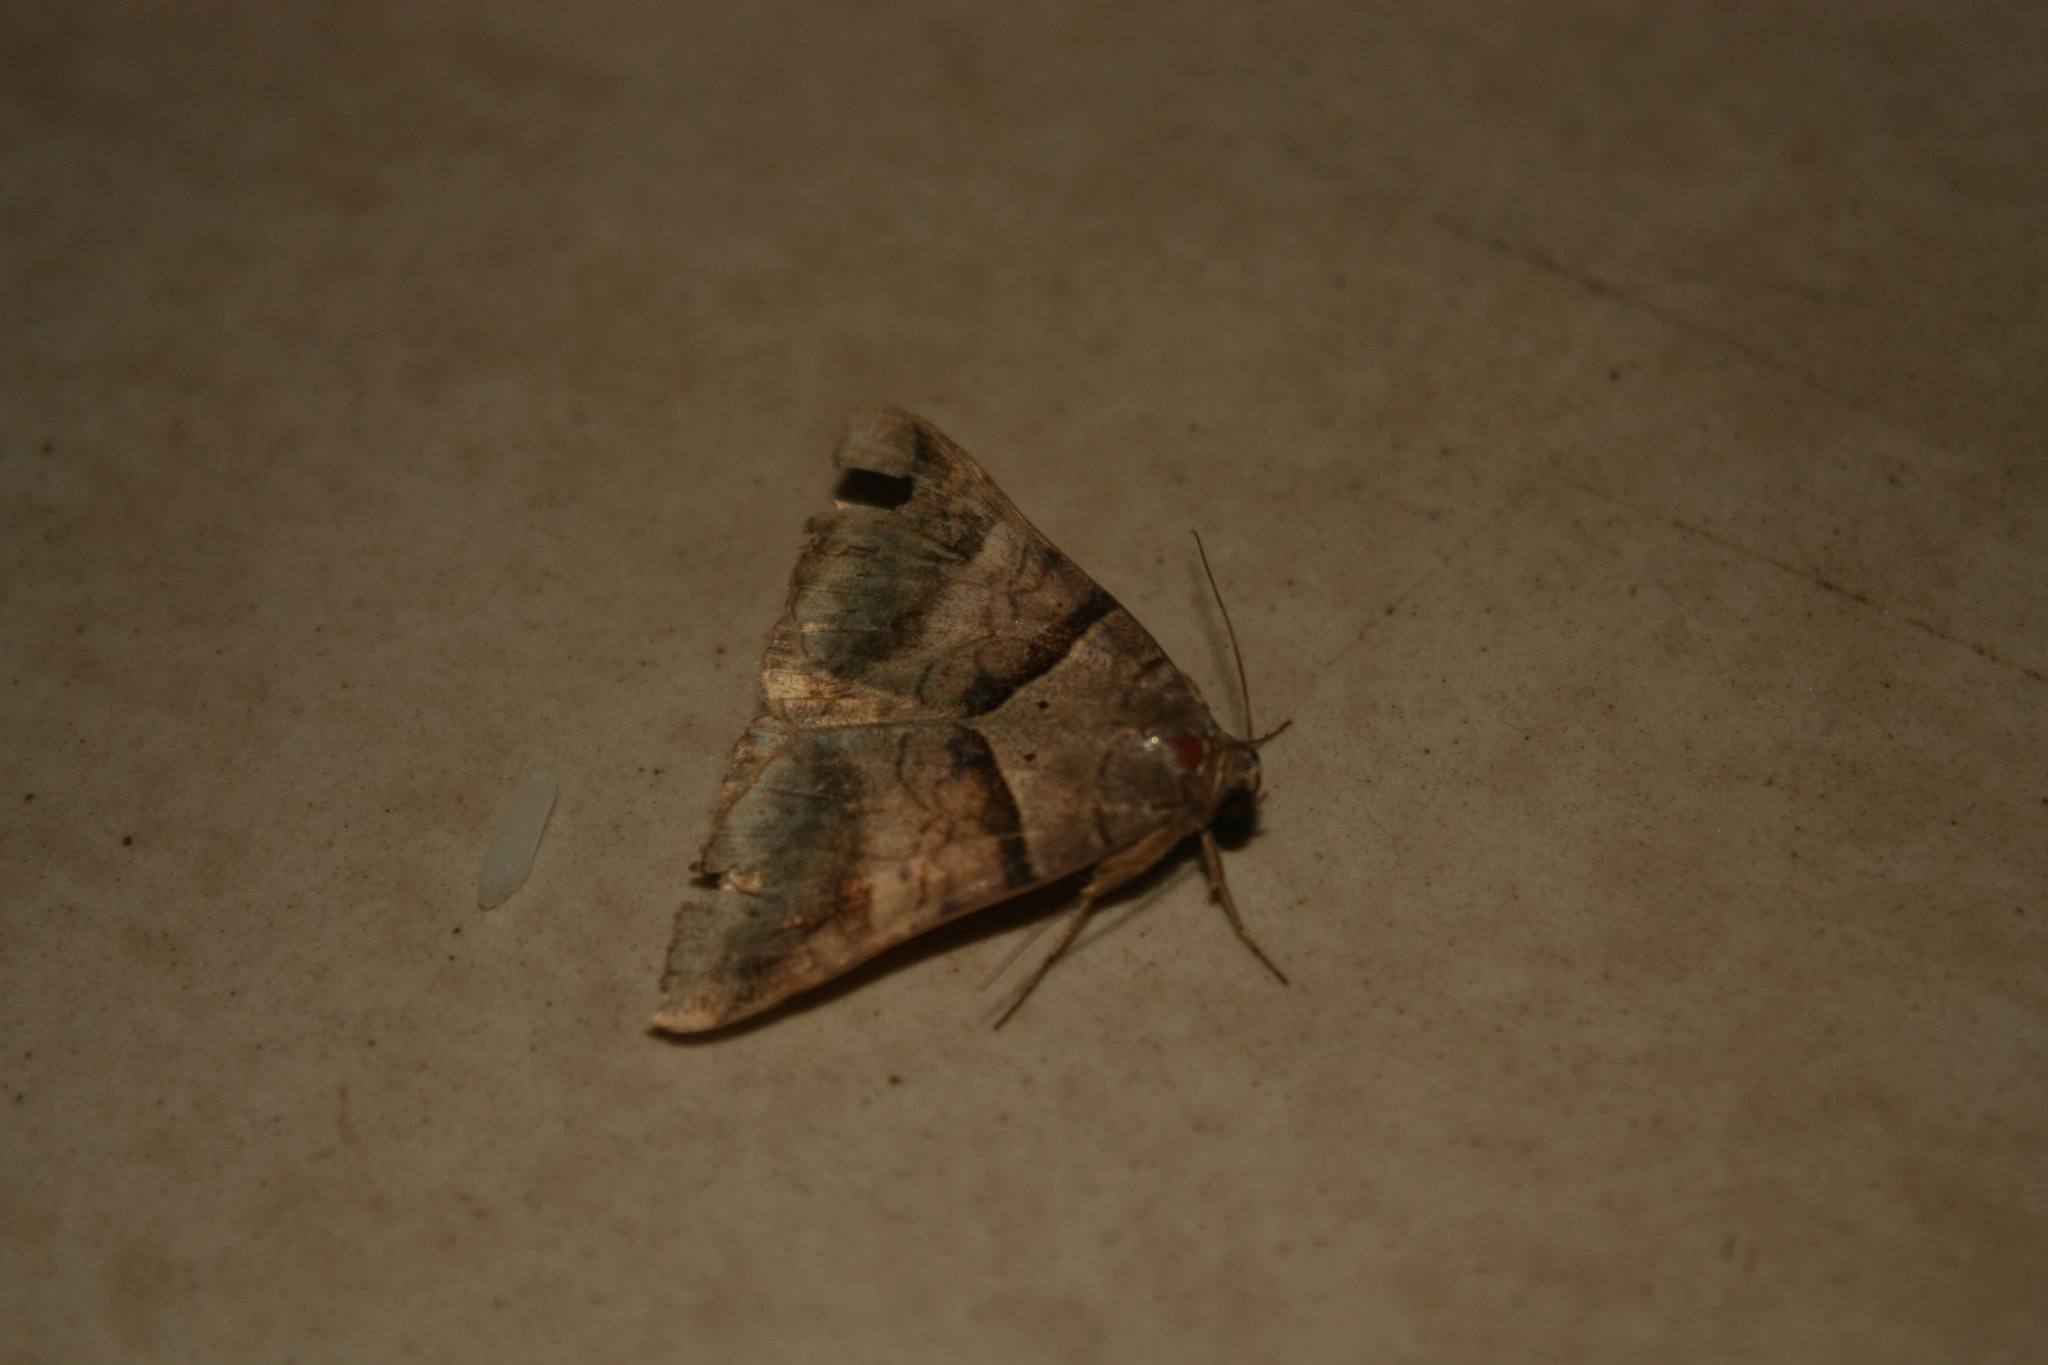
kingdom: Animalia
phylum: Arthropoda
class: Insecta
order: Lepidoptera
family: Erebidae
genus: Mocis
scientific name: Mocis undata
